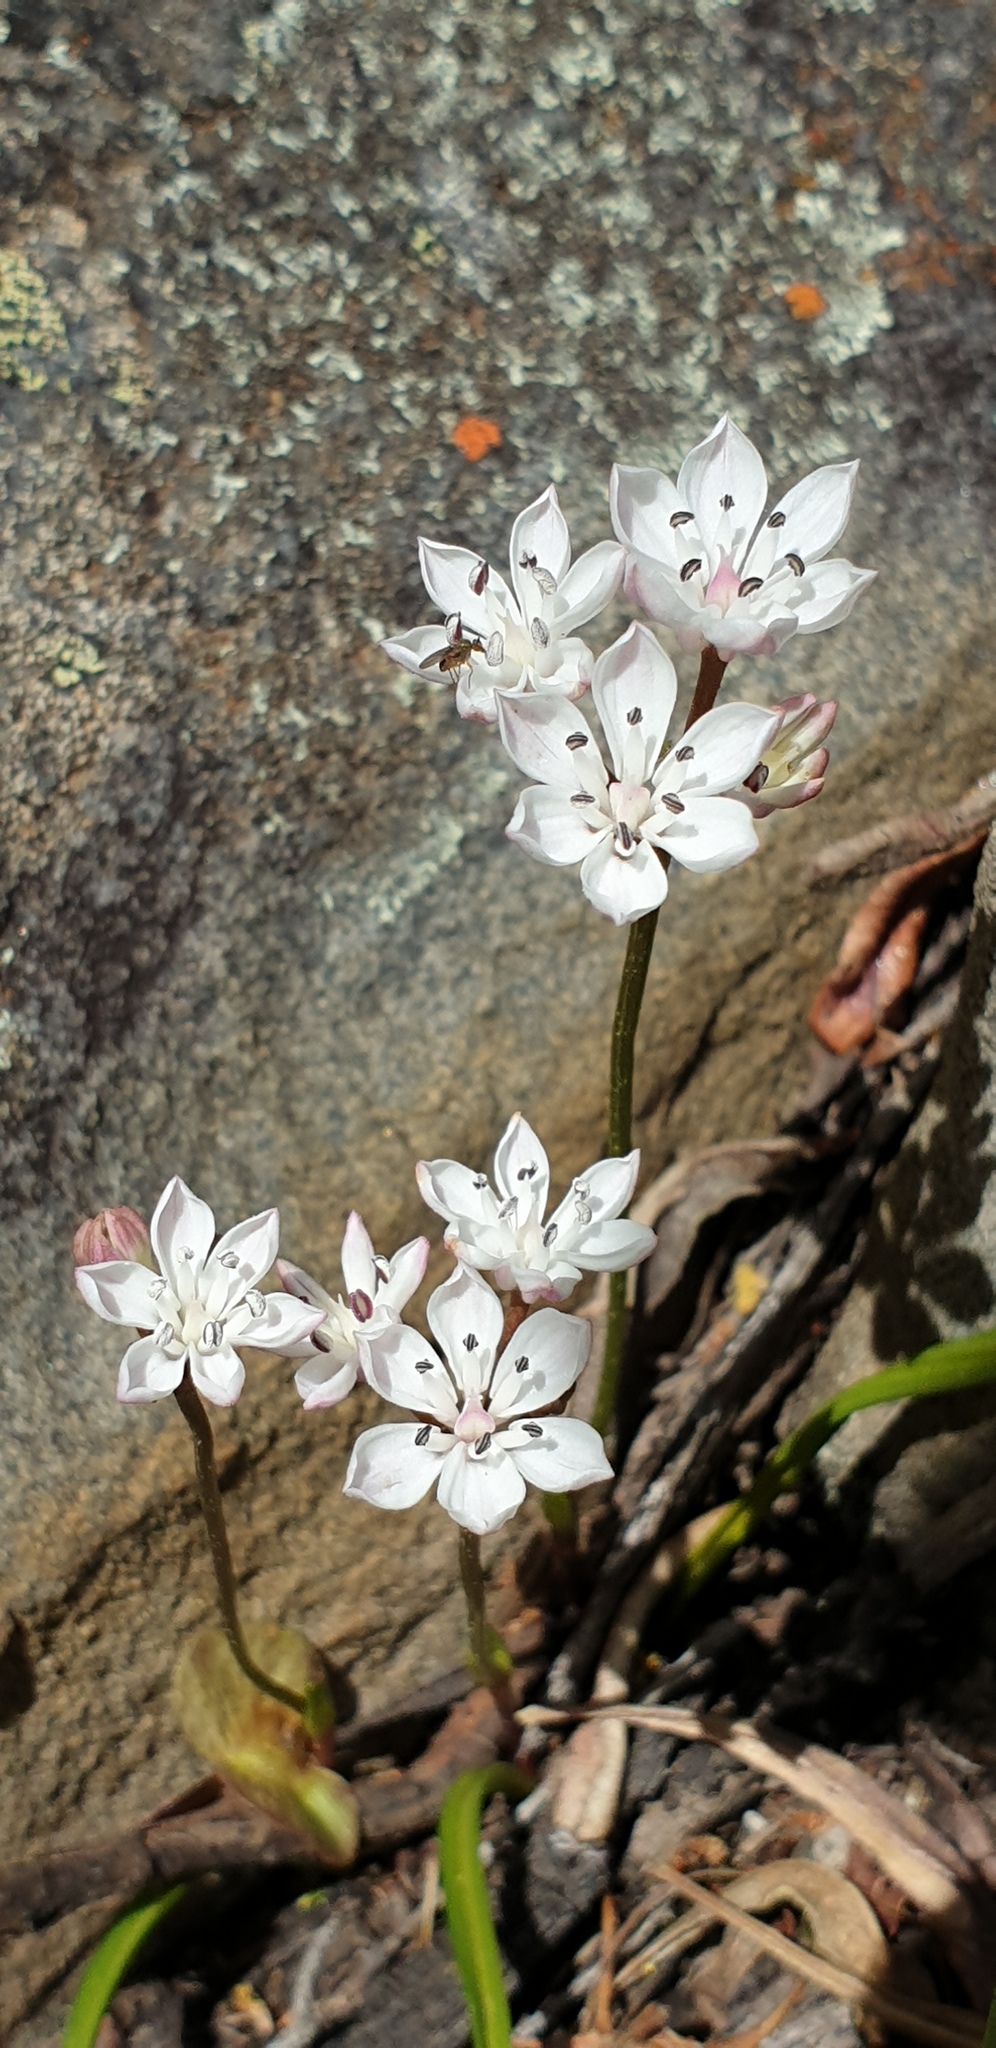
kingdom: Plantae
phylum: Tracheophyta
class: Liliopsida
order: Liliales
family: Colchicaceae
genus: Burchardia
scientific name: Burchardia umbellata
